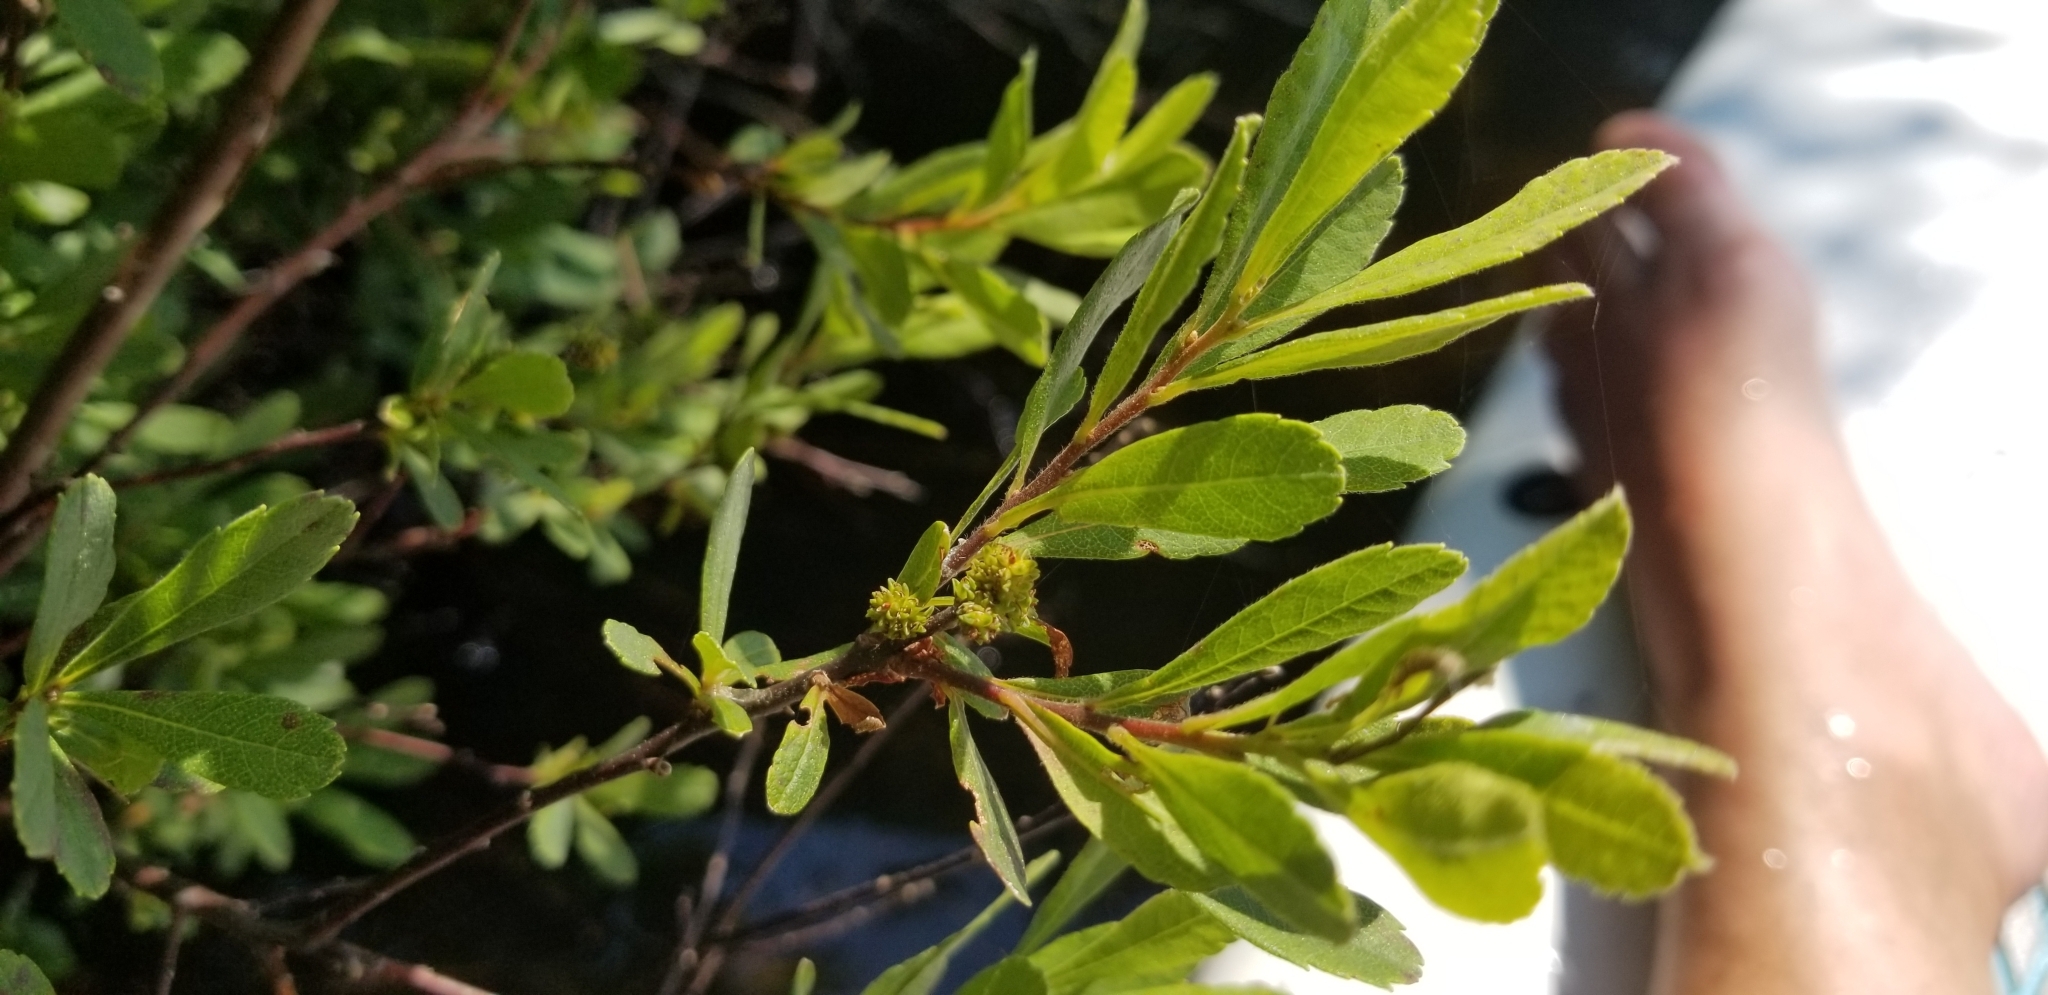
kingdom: Plantae
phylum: Tracheophyta
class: Magnoliopsida
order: Fagales
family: Myricaceae
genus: Myrica
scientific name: Myrica gale
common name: Sweet gale
